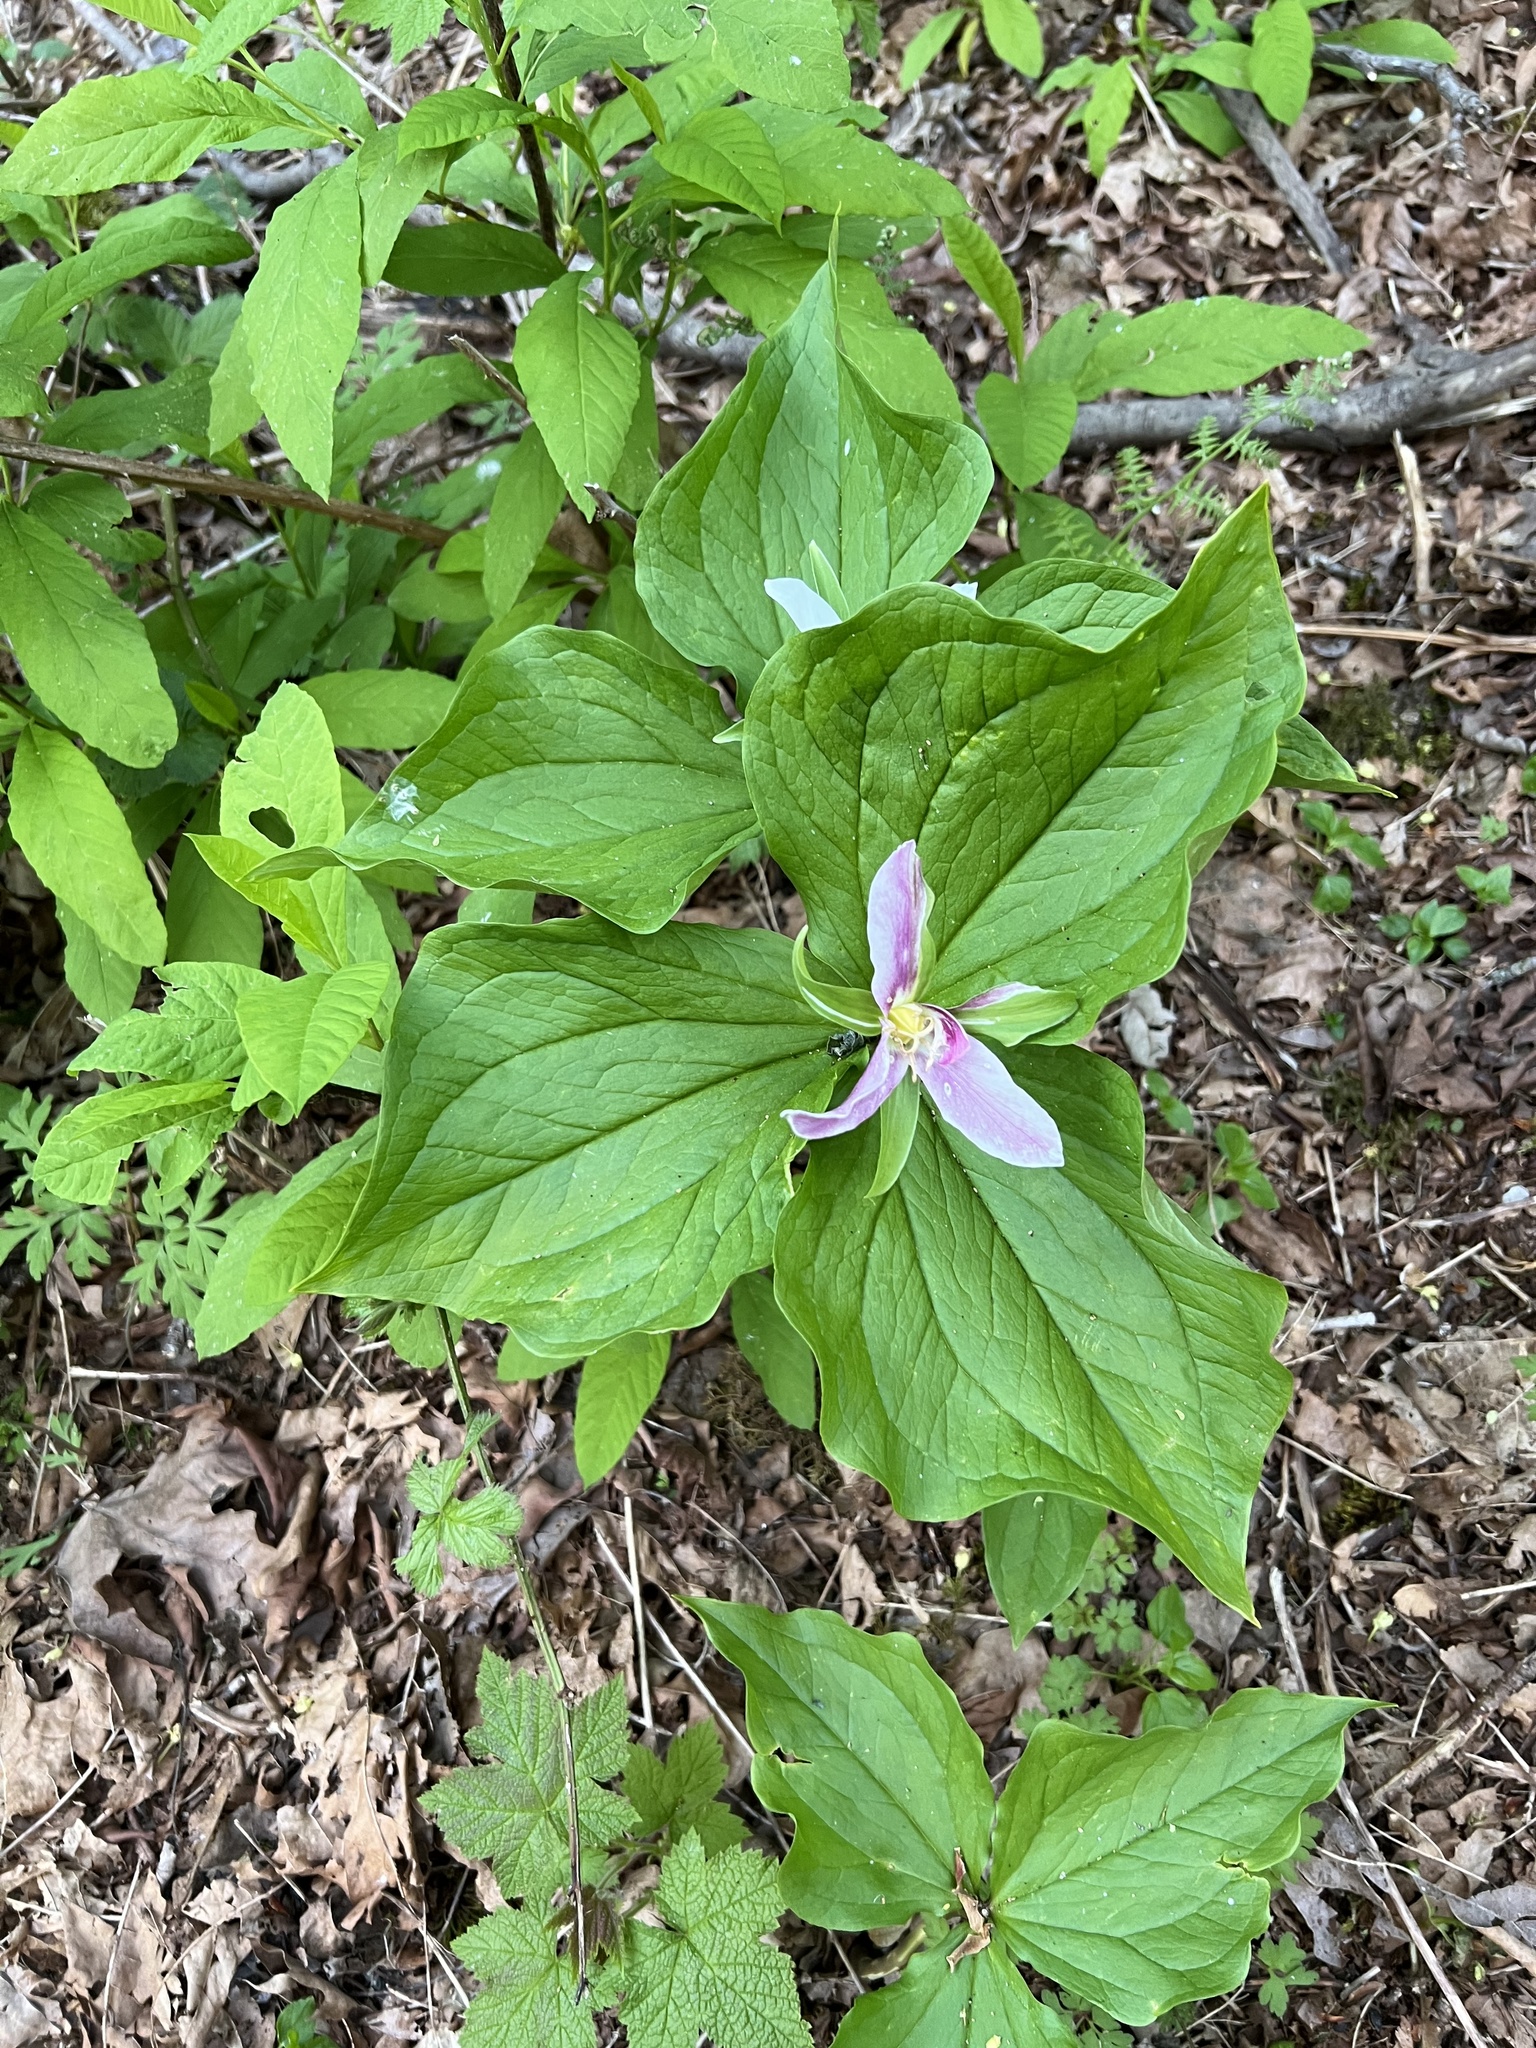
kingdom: Plantae
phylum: Tracheophyta
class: Liliopsida
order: Liliales
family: Melanthiaceae
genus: Trillium
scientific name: Trillium ovatum
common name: Pacific trillium
